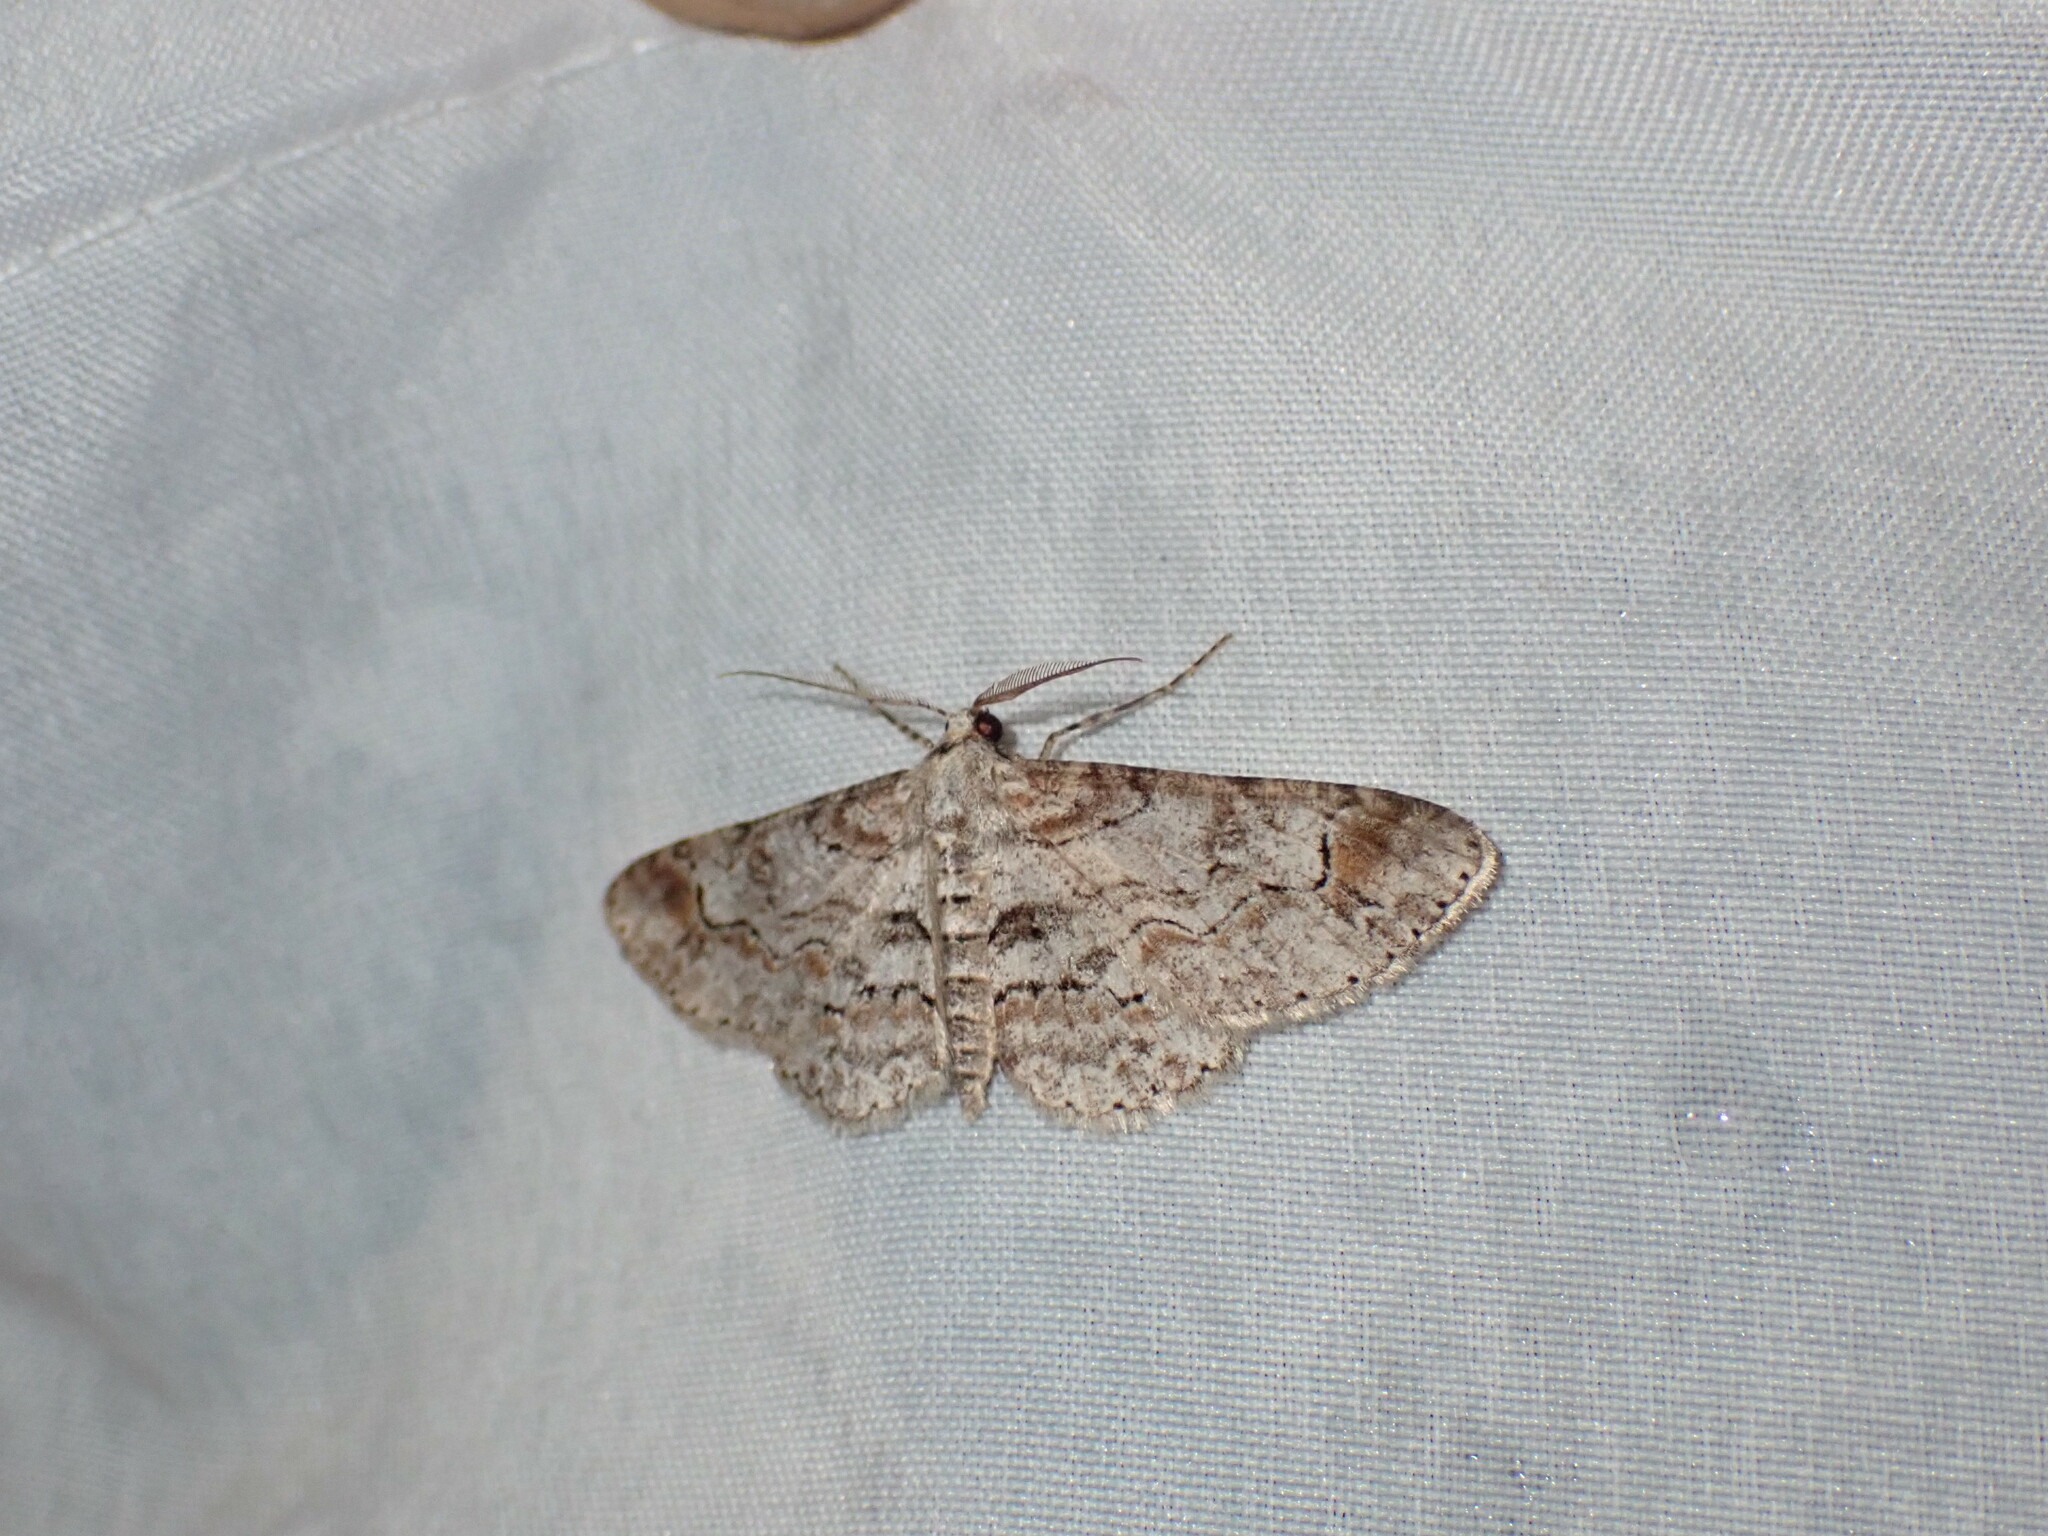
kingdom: Animalia
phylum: Arthropoda
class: Insecta
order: Lepidoptera
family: Geometridae
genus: Iridopsis
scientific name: Iridopsis emasculatum
